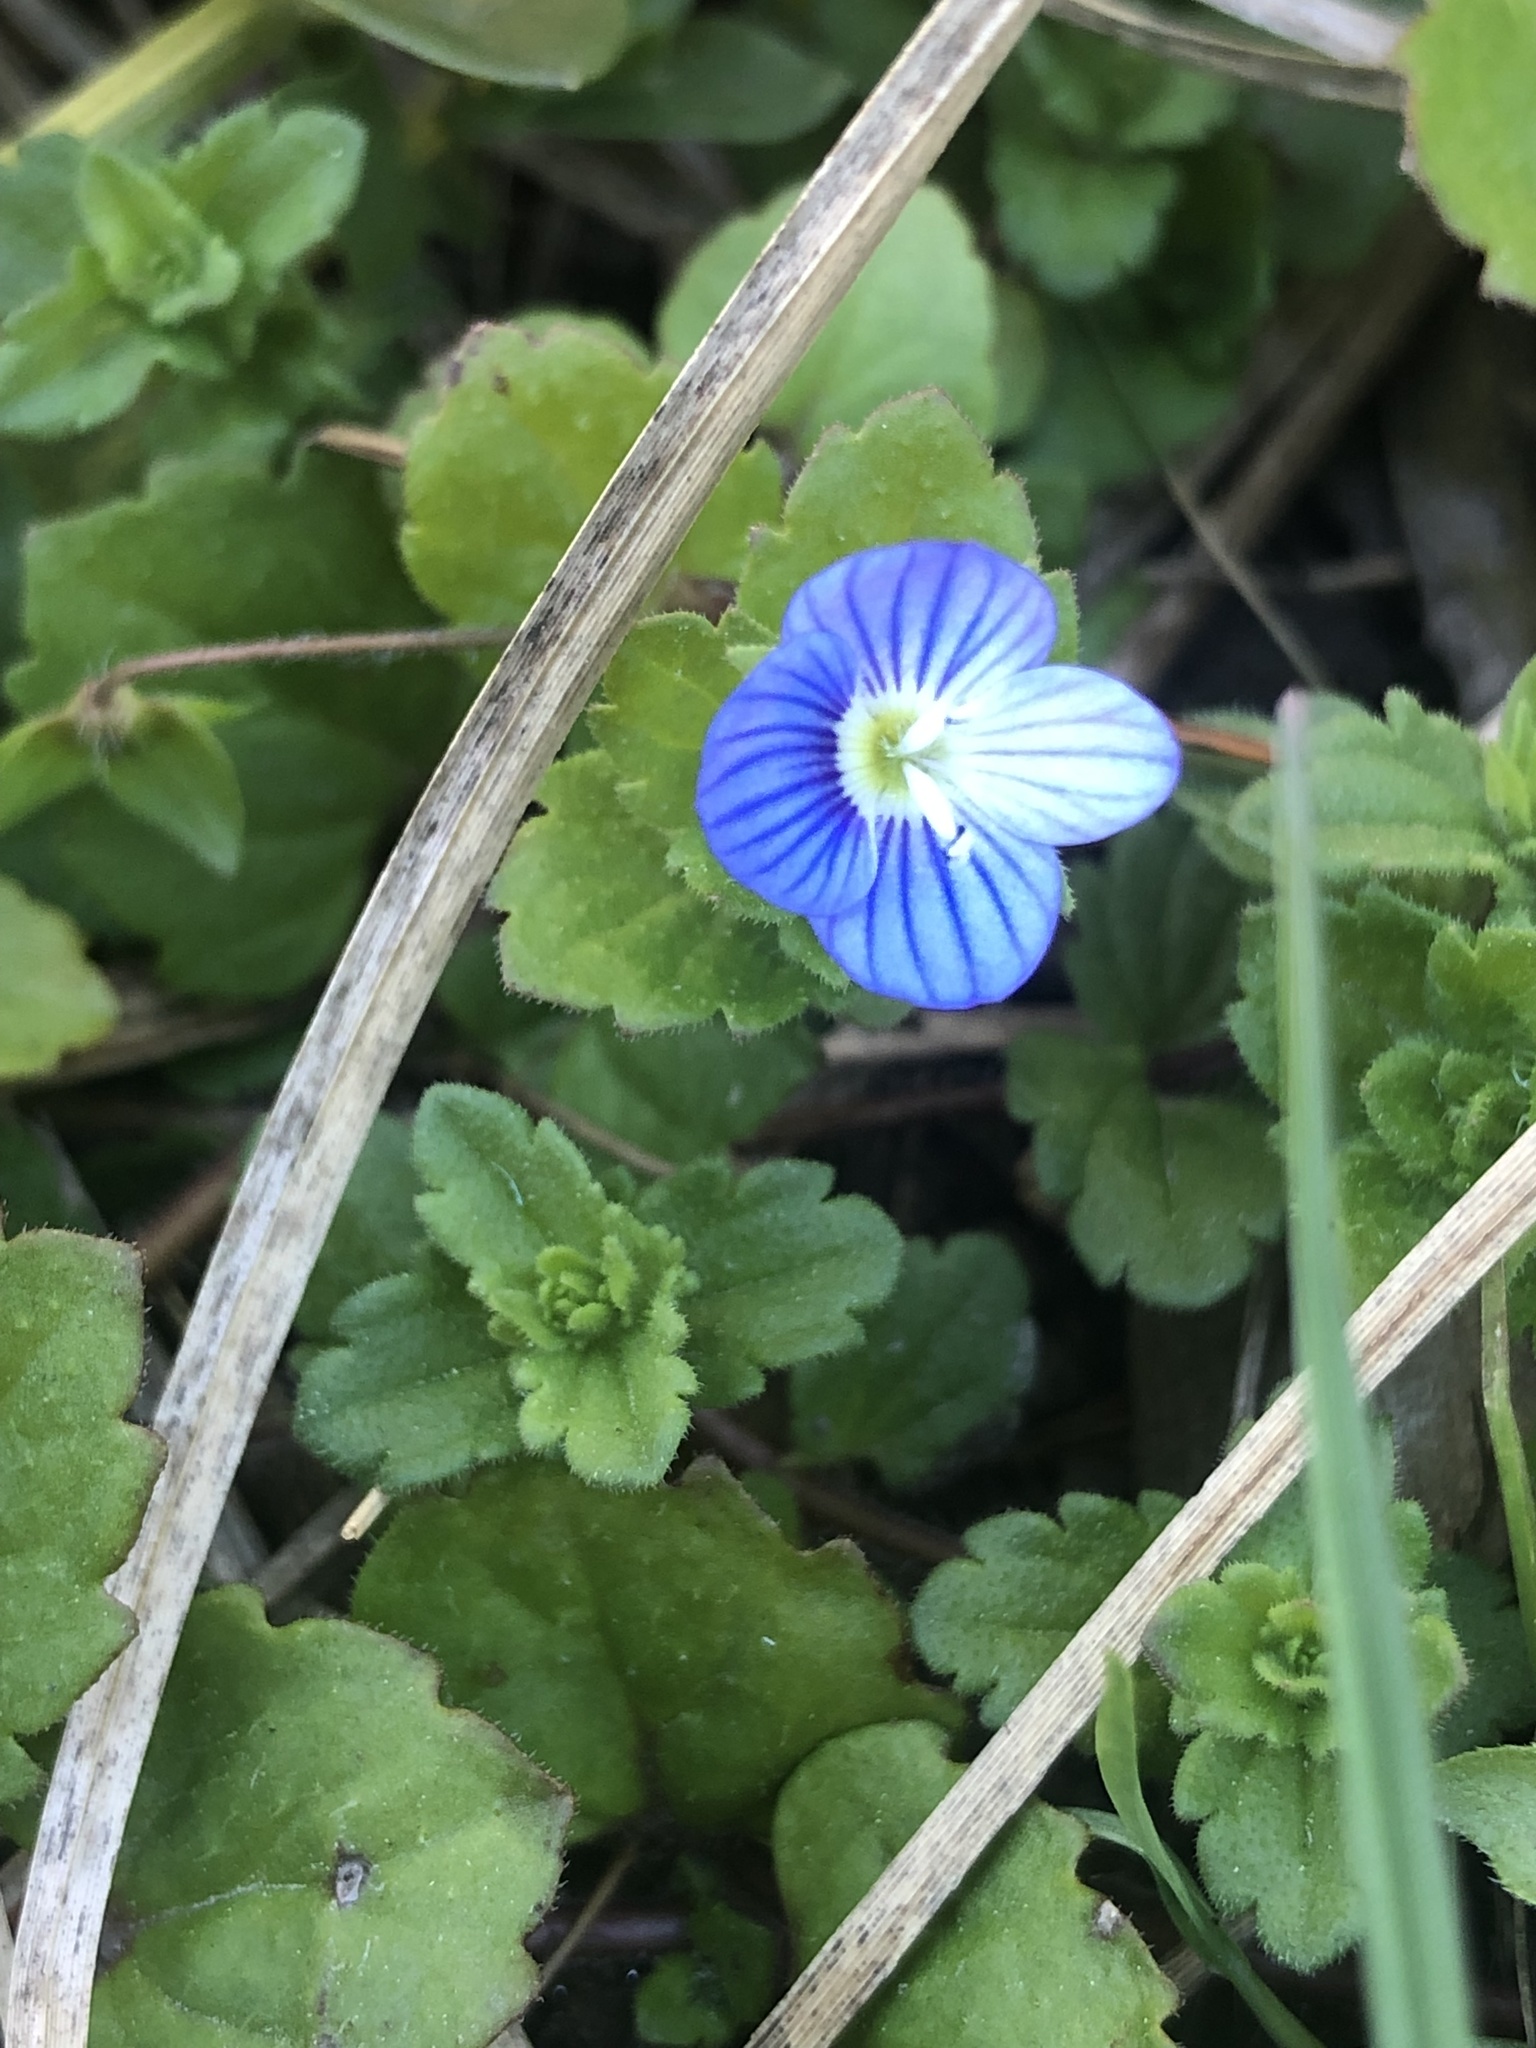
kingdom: Plantae
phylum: Tracheophyta
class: Magnoliopsida
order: Lamiales
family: Plantaginaceae
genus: Veronica
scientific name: Veronica persica
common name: Common field-speedwell
